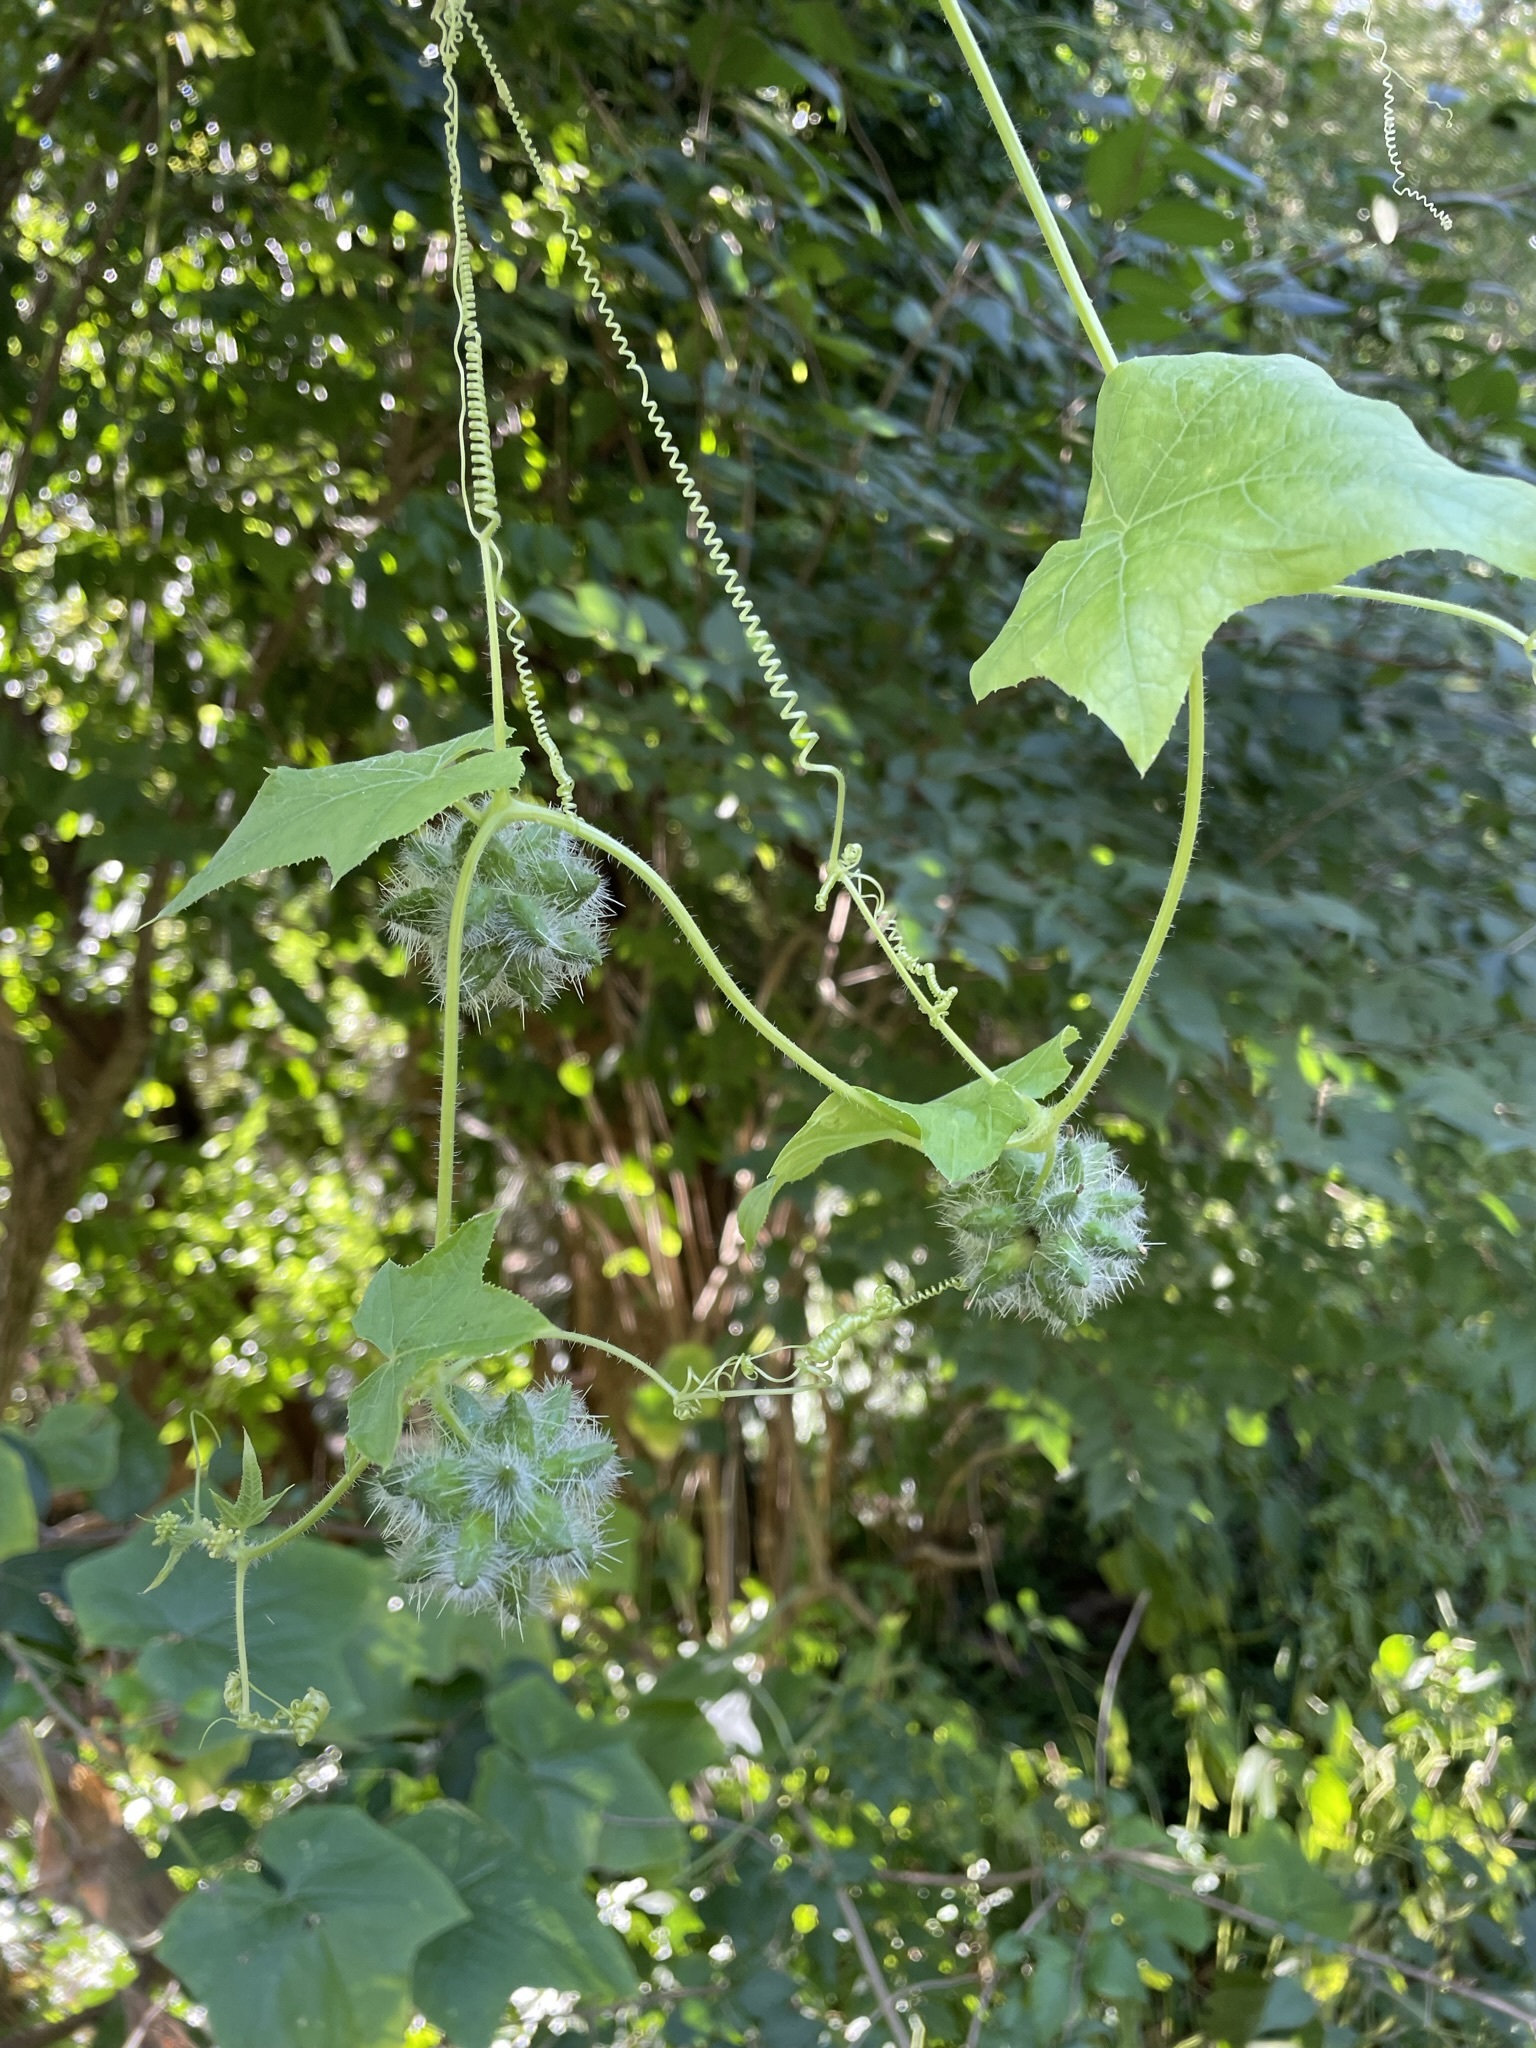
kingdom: Plantae
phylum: Tracheophyta
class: Magnoliopsida
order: Cucurbitales
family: Cucurbitaceae
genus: Sicyos
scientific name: Sicyos angulatus
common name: Angled burr cucumber
